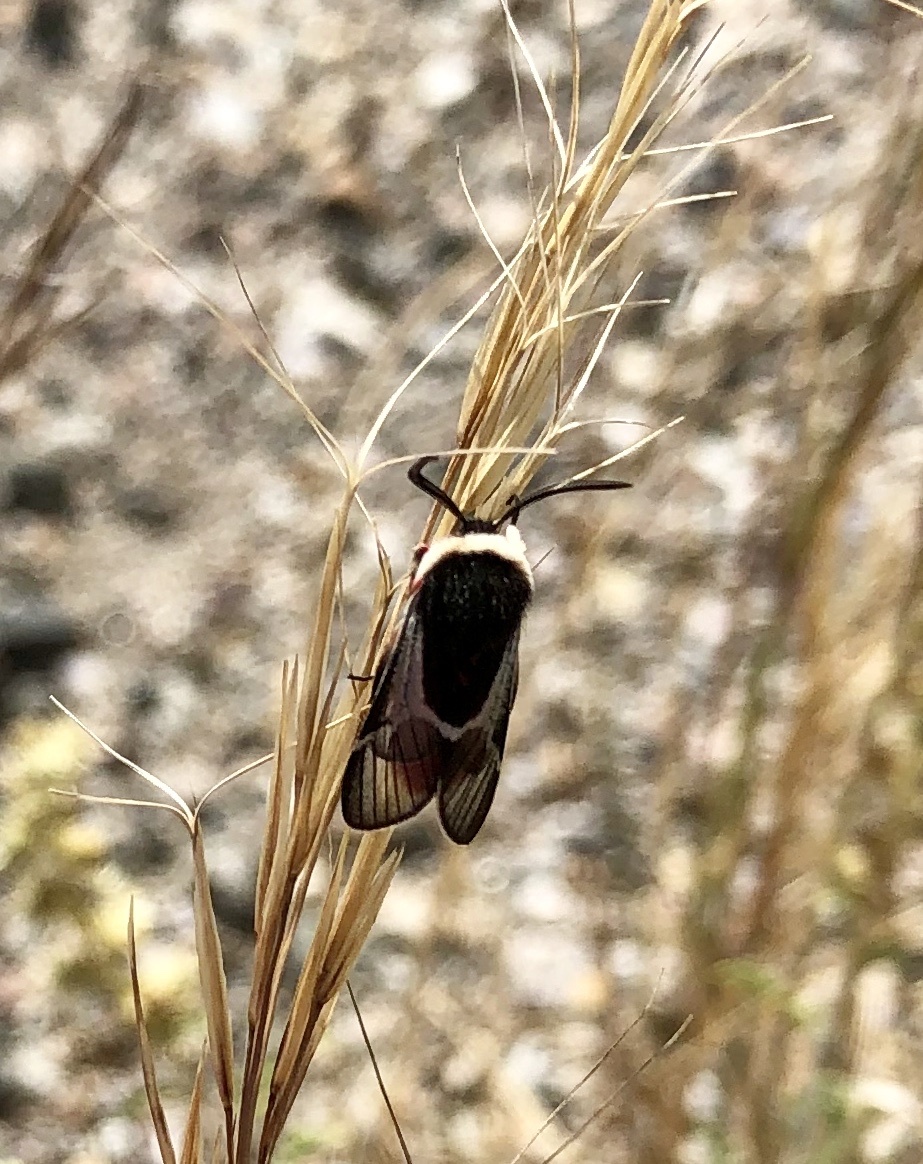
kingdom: Animalia
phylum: Arthropoda
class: Insecta
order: Lepidoptera
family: Erebidae
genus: Kodiosoma
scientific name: Kodiosoma fulvum
